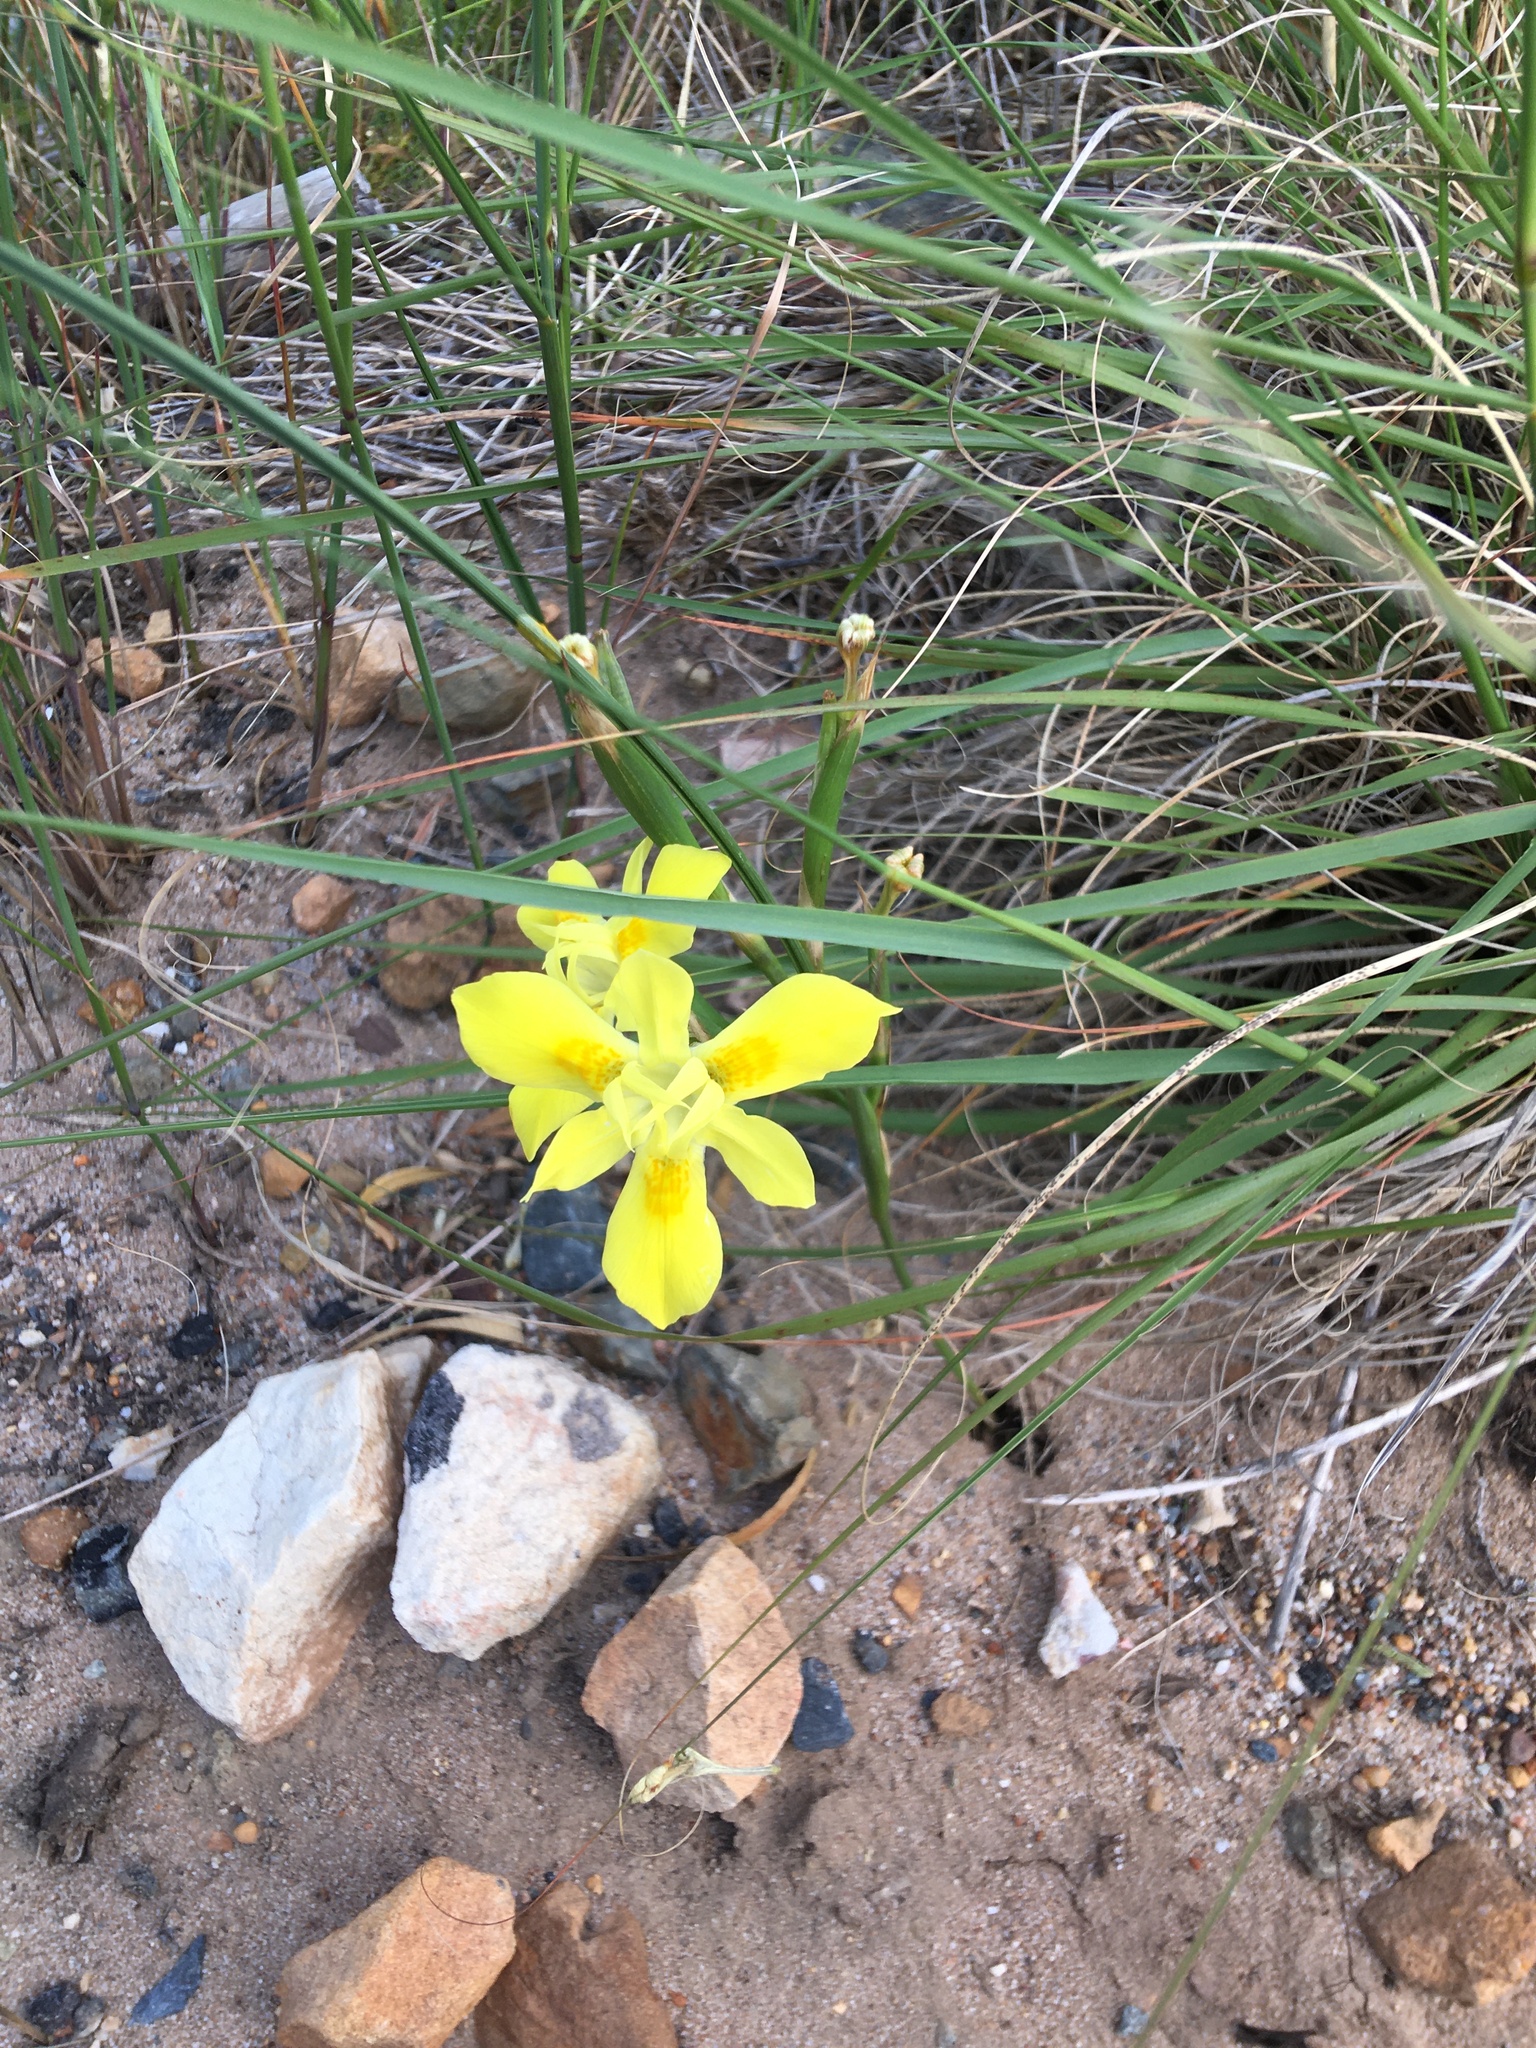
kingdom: Plantae
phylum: Tracheophyta
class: Liliopsida
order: Asparagales
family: Iridaceae
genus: Moraea
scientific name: Moraea fugax
